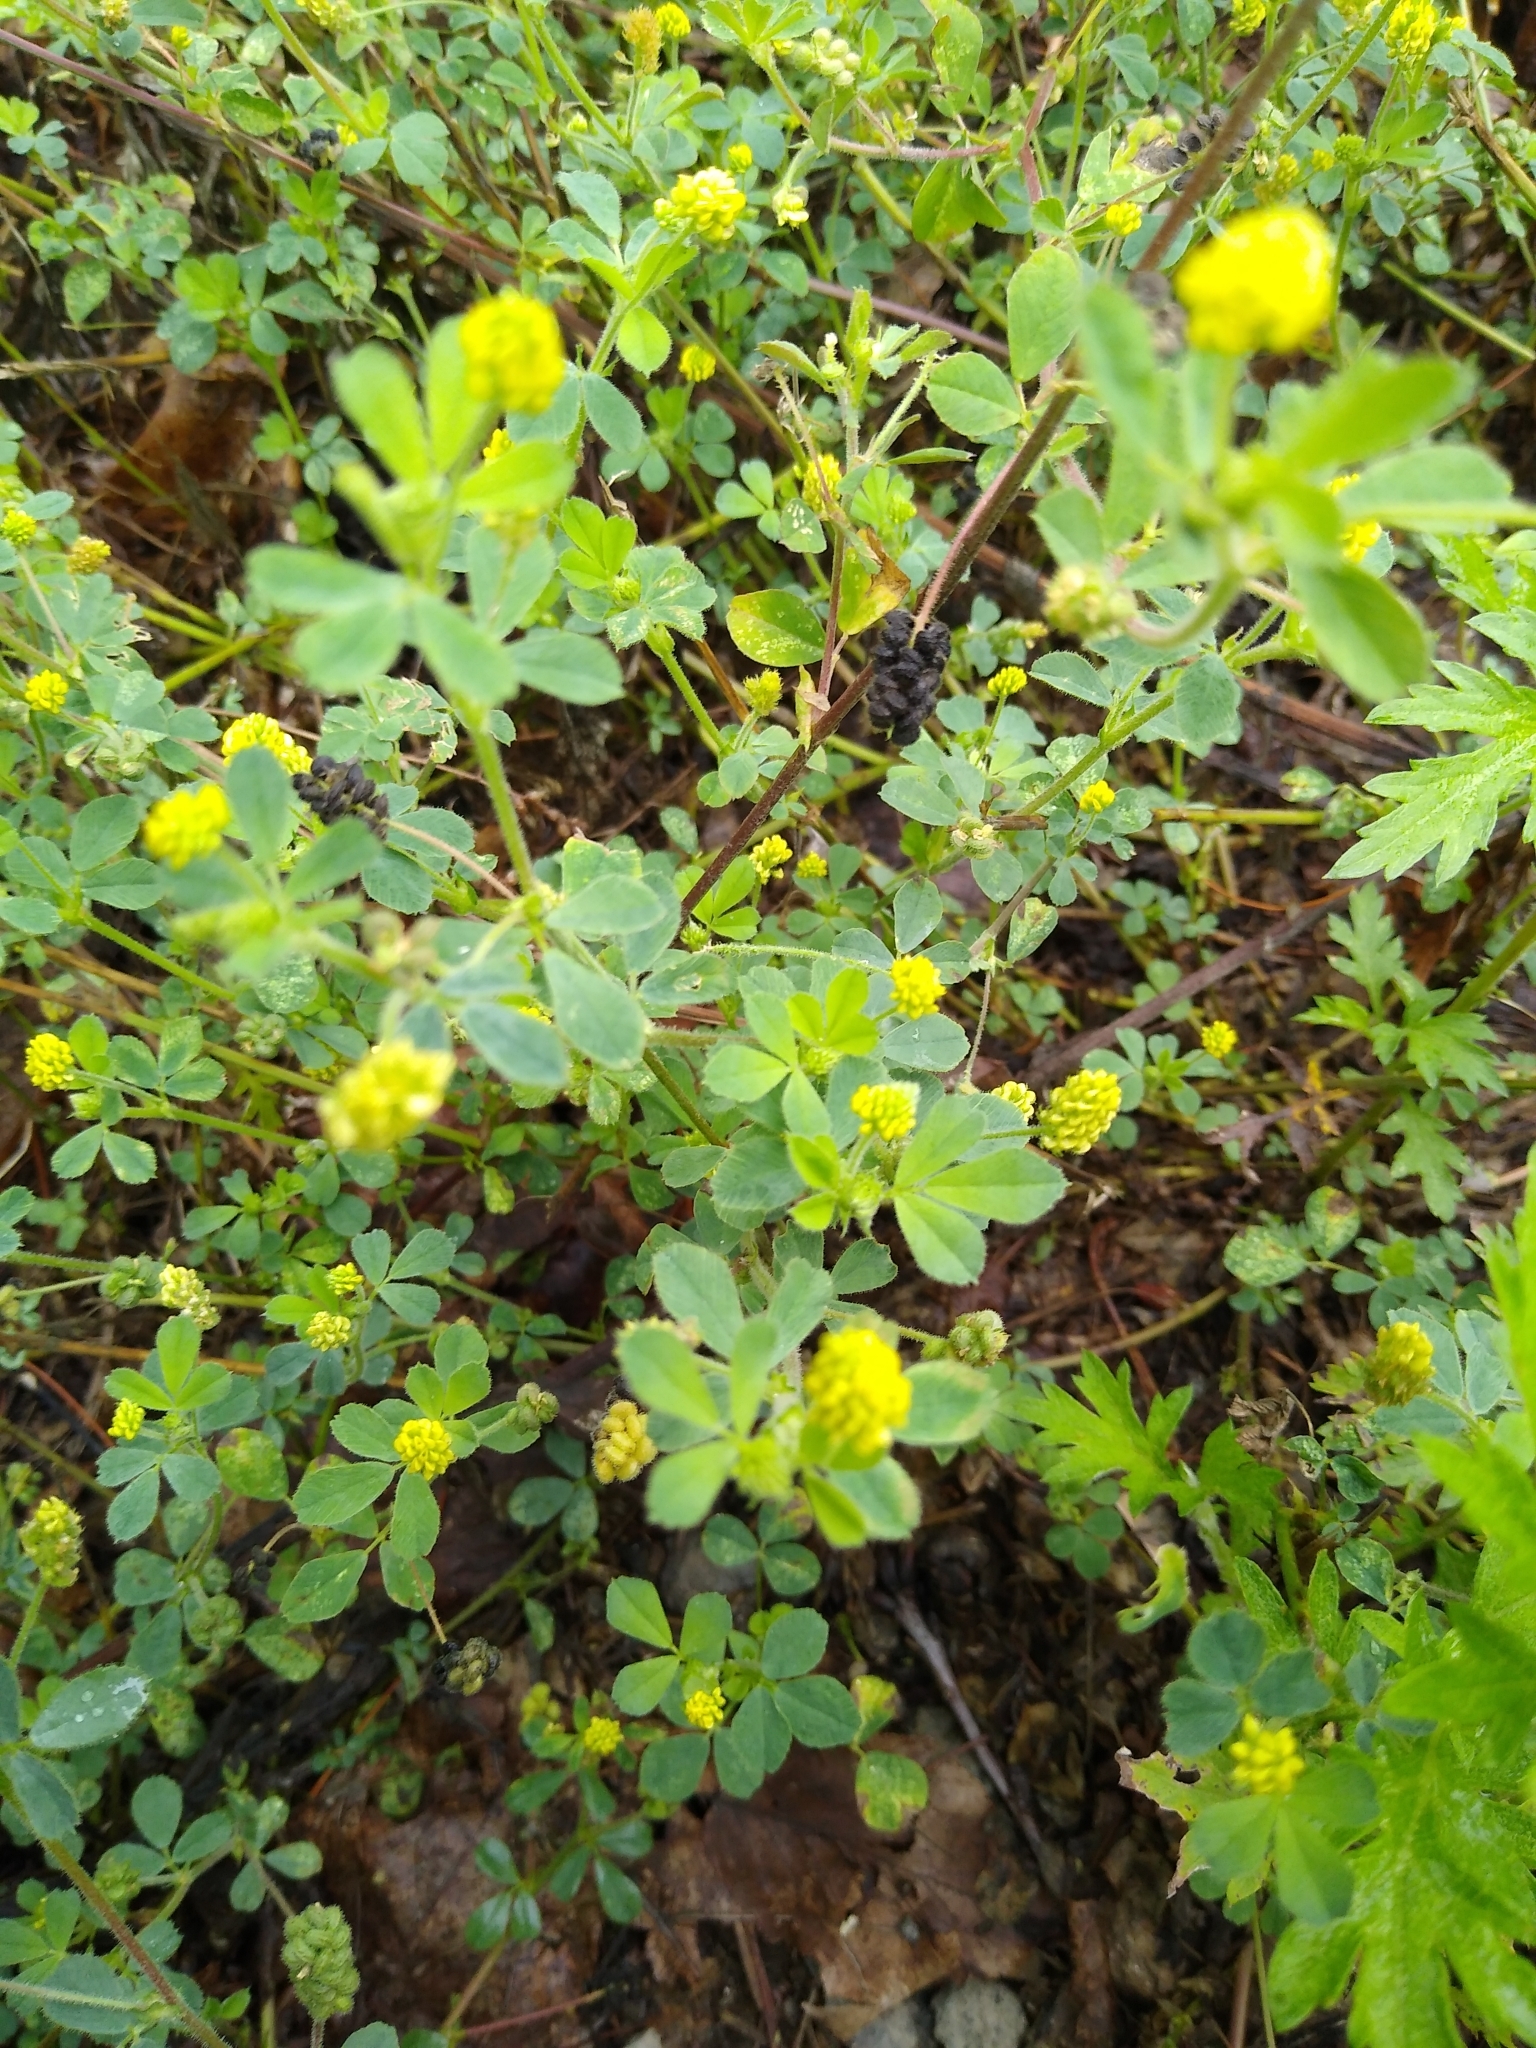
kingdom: Plantae
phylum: Tracheophyta
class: Magnoliopsida
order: Fabales
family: Fabaceae
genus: Medicago
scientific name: Medicago lupulina
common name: Black medick
